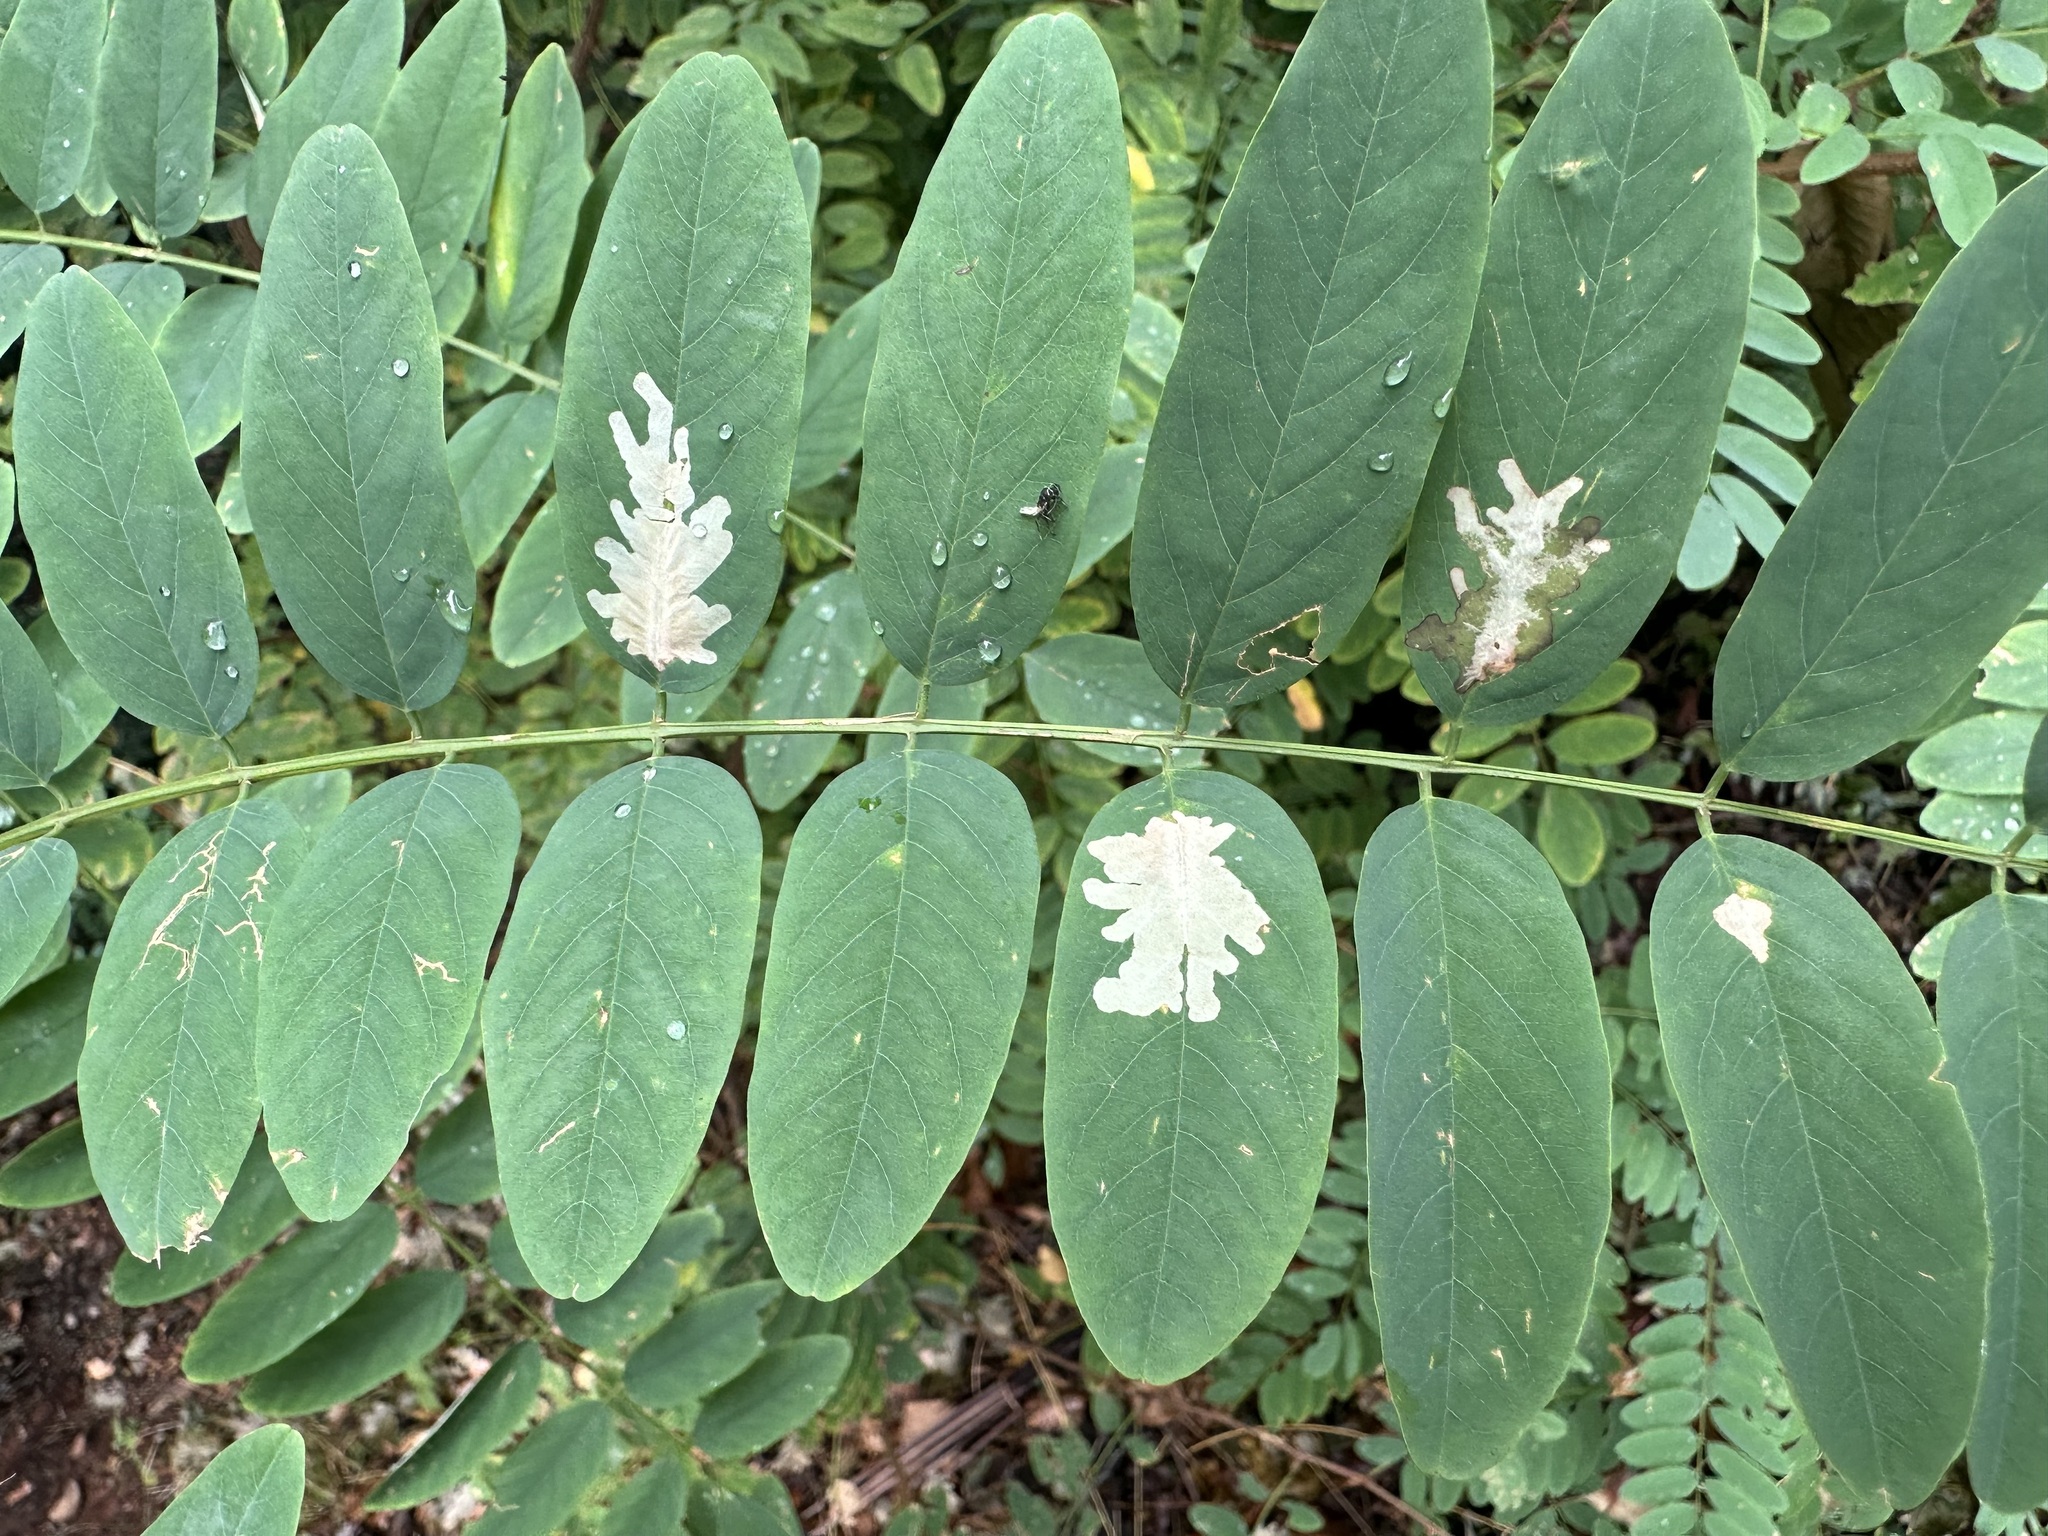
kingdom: Animalia
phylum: Arthropoda
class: Insecta
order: Lepidoptera
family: Gracillariidae
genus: Parectopa
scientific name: Parectopa robiniella
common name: Locust digitate leafminer
